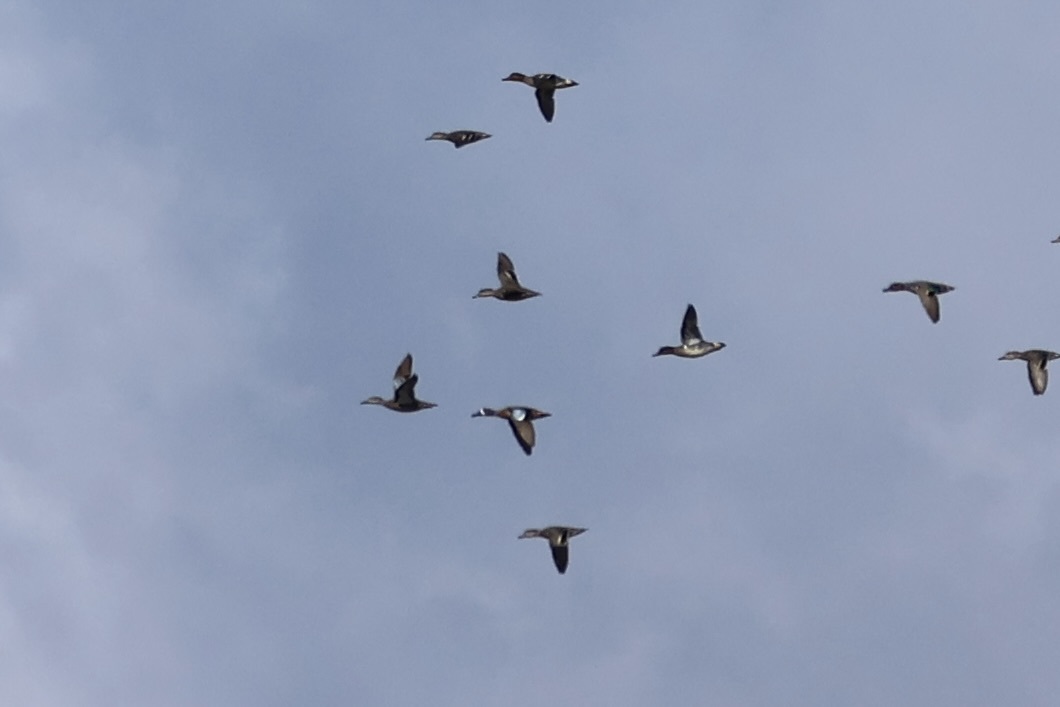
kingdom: Animalia
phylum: Chordata
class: Aves
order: Anseriformes
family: Anatidae
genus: Spatula
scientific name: Spatula discors
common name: Blue-winged teal
